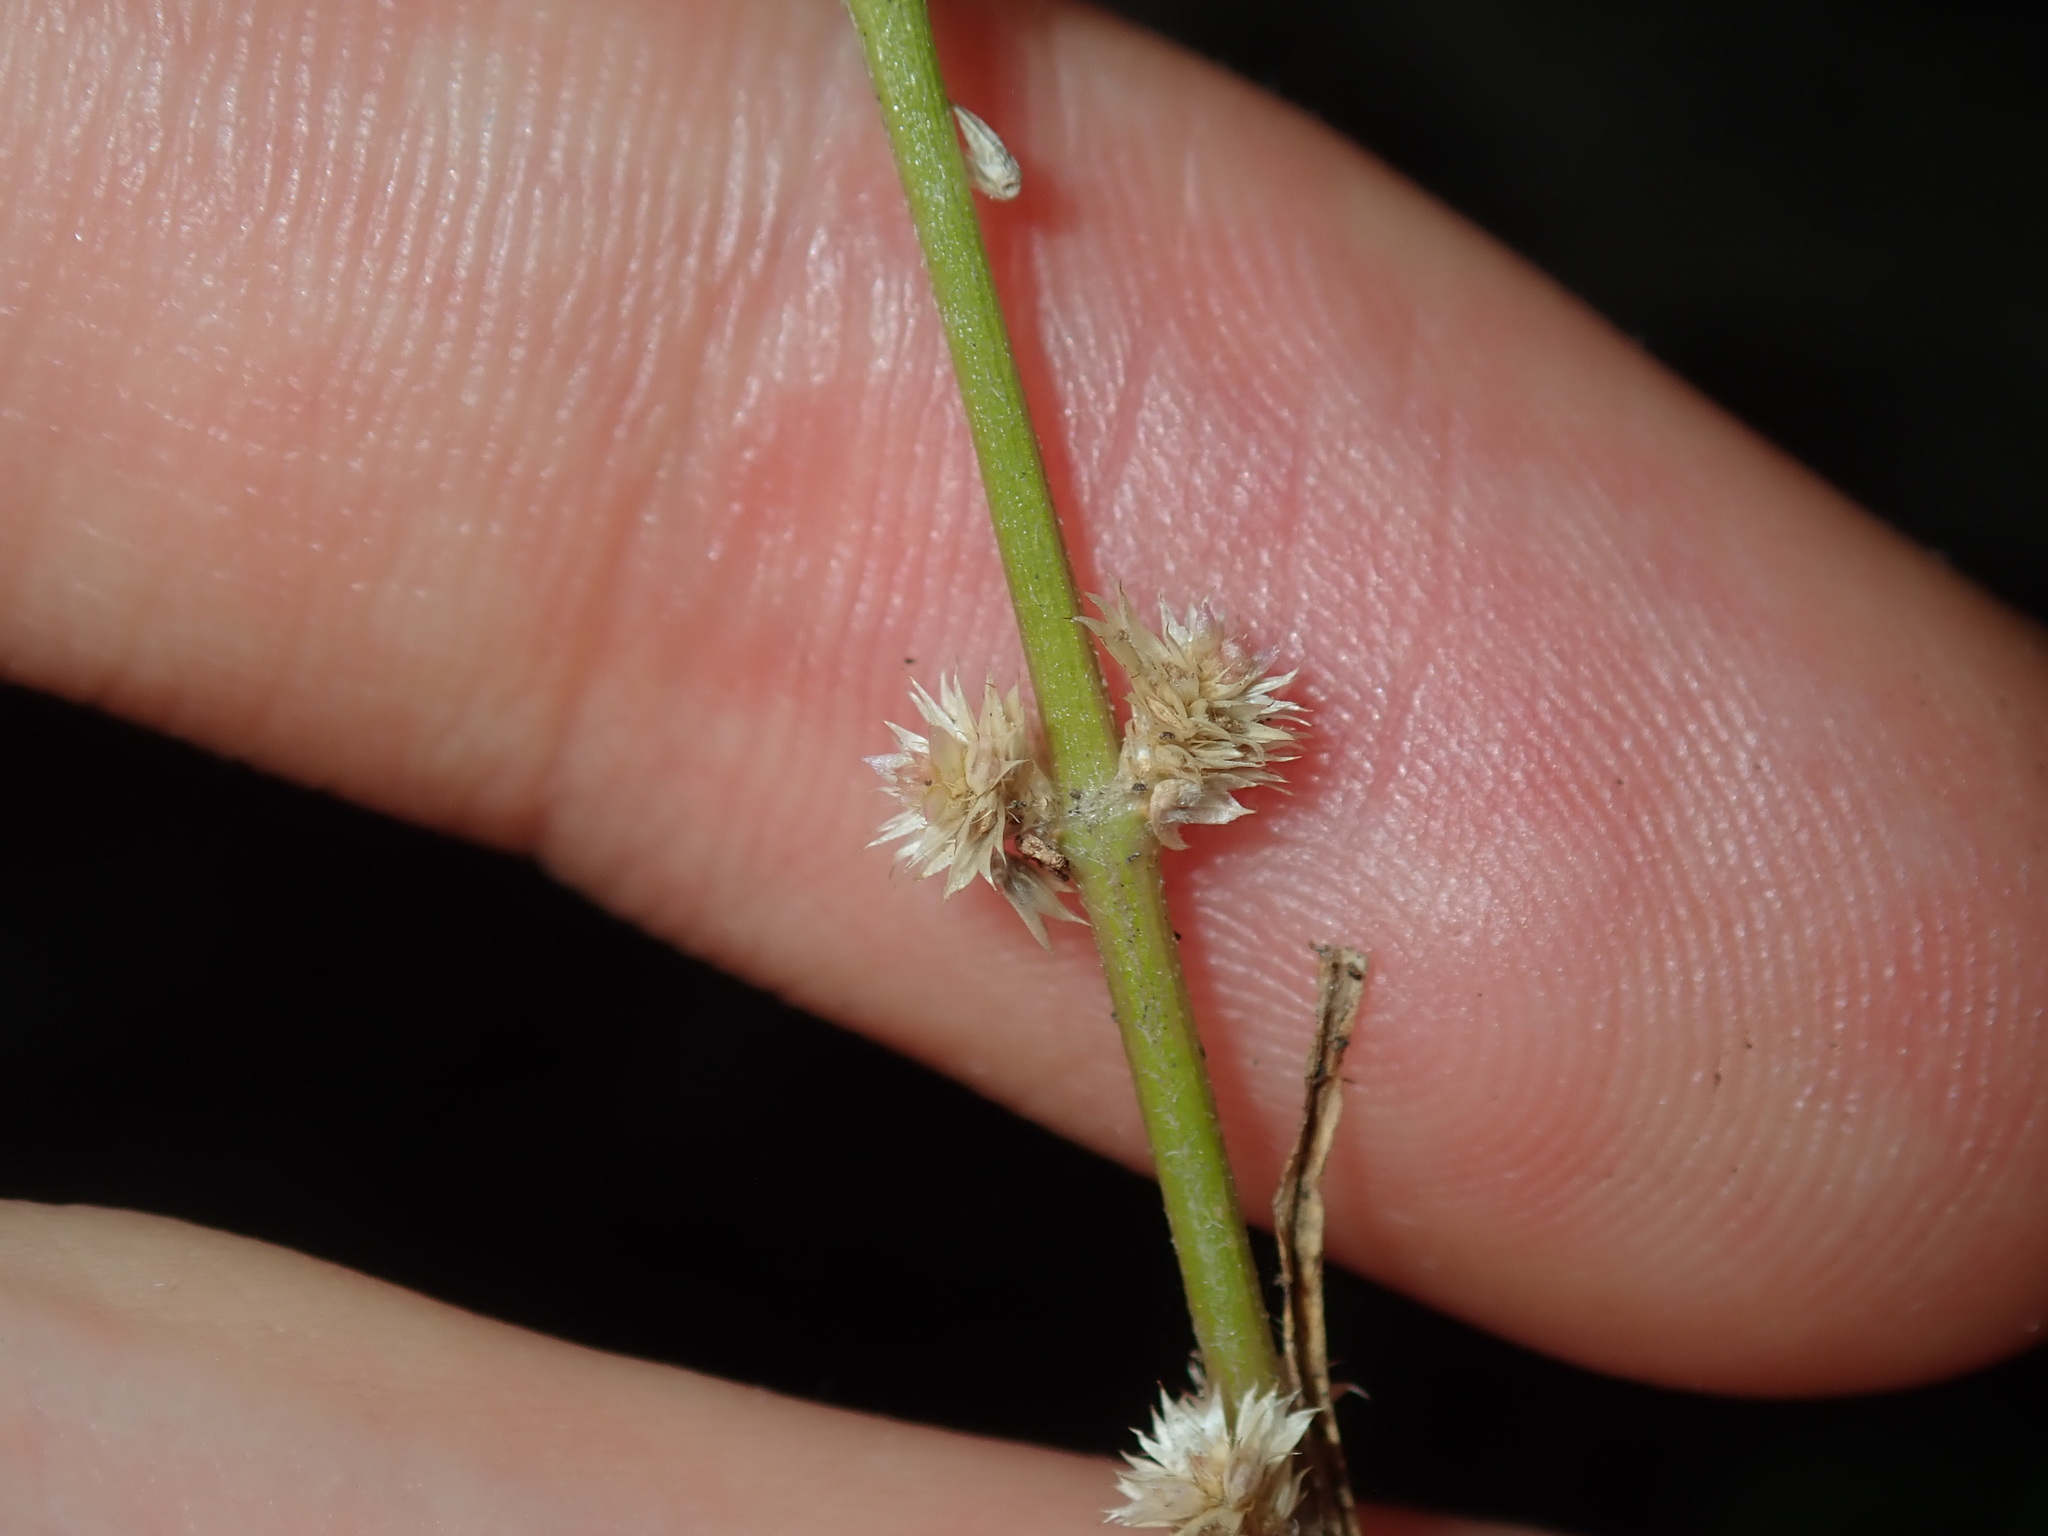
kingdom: Plantae
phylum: Tracheophyta
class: Magnoliopsida
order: Caryophyllales
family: Amaranthaceae
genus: Alternanthera
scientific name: Alternanthera denticulata
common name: Lesser joyweed
